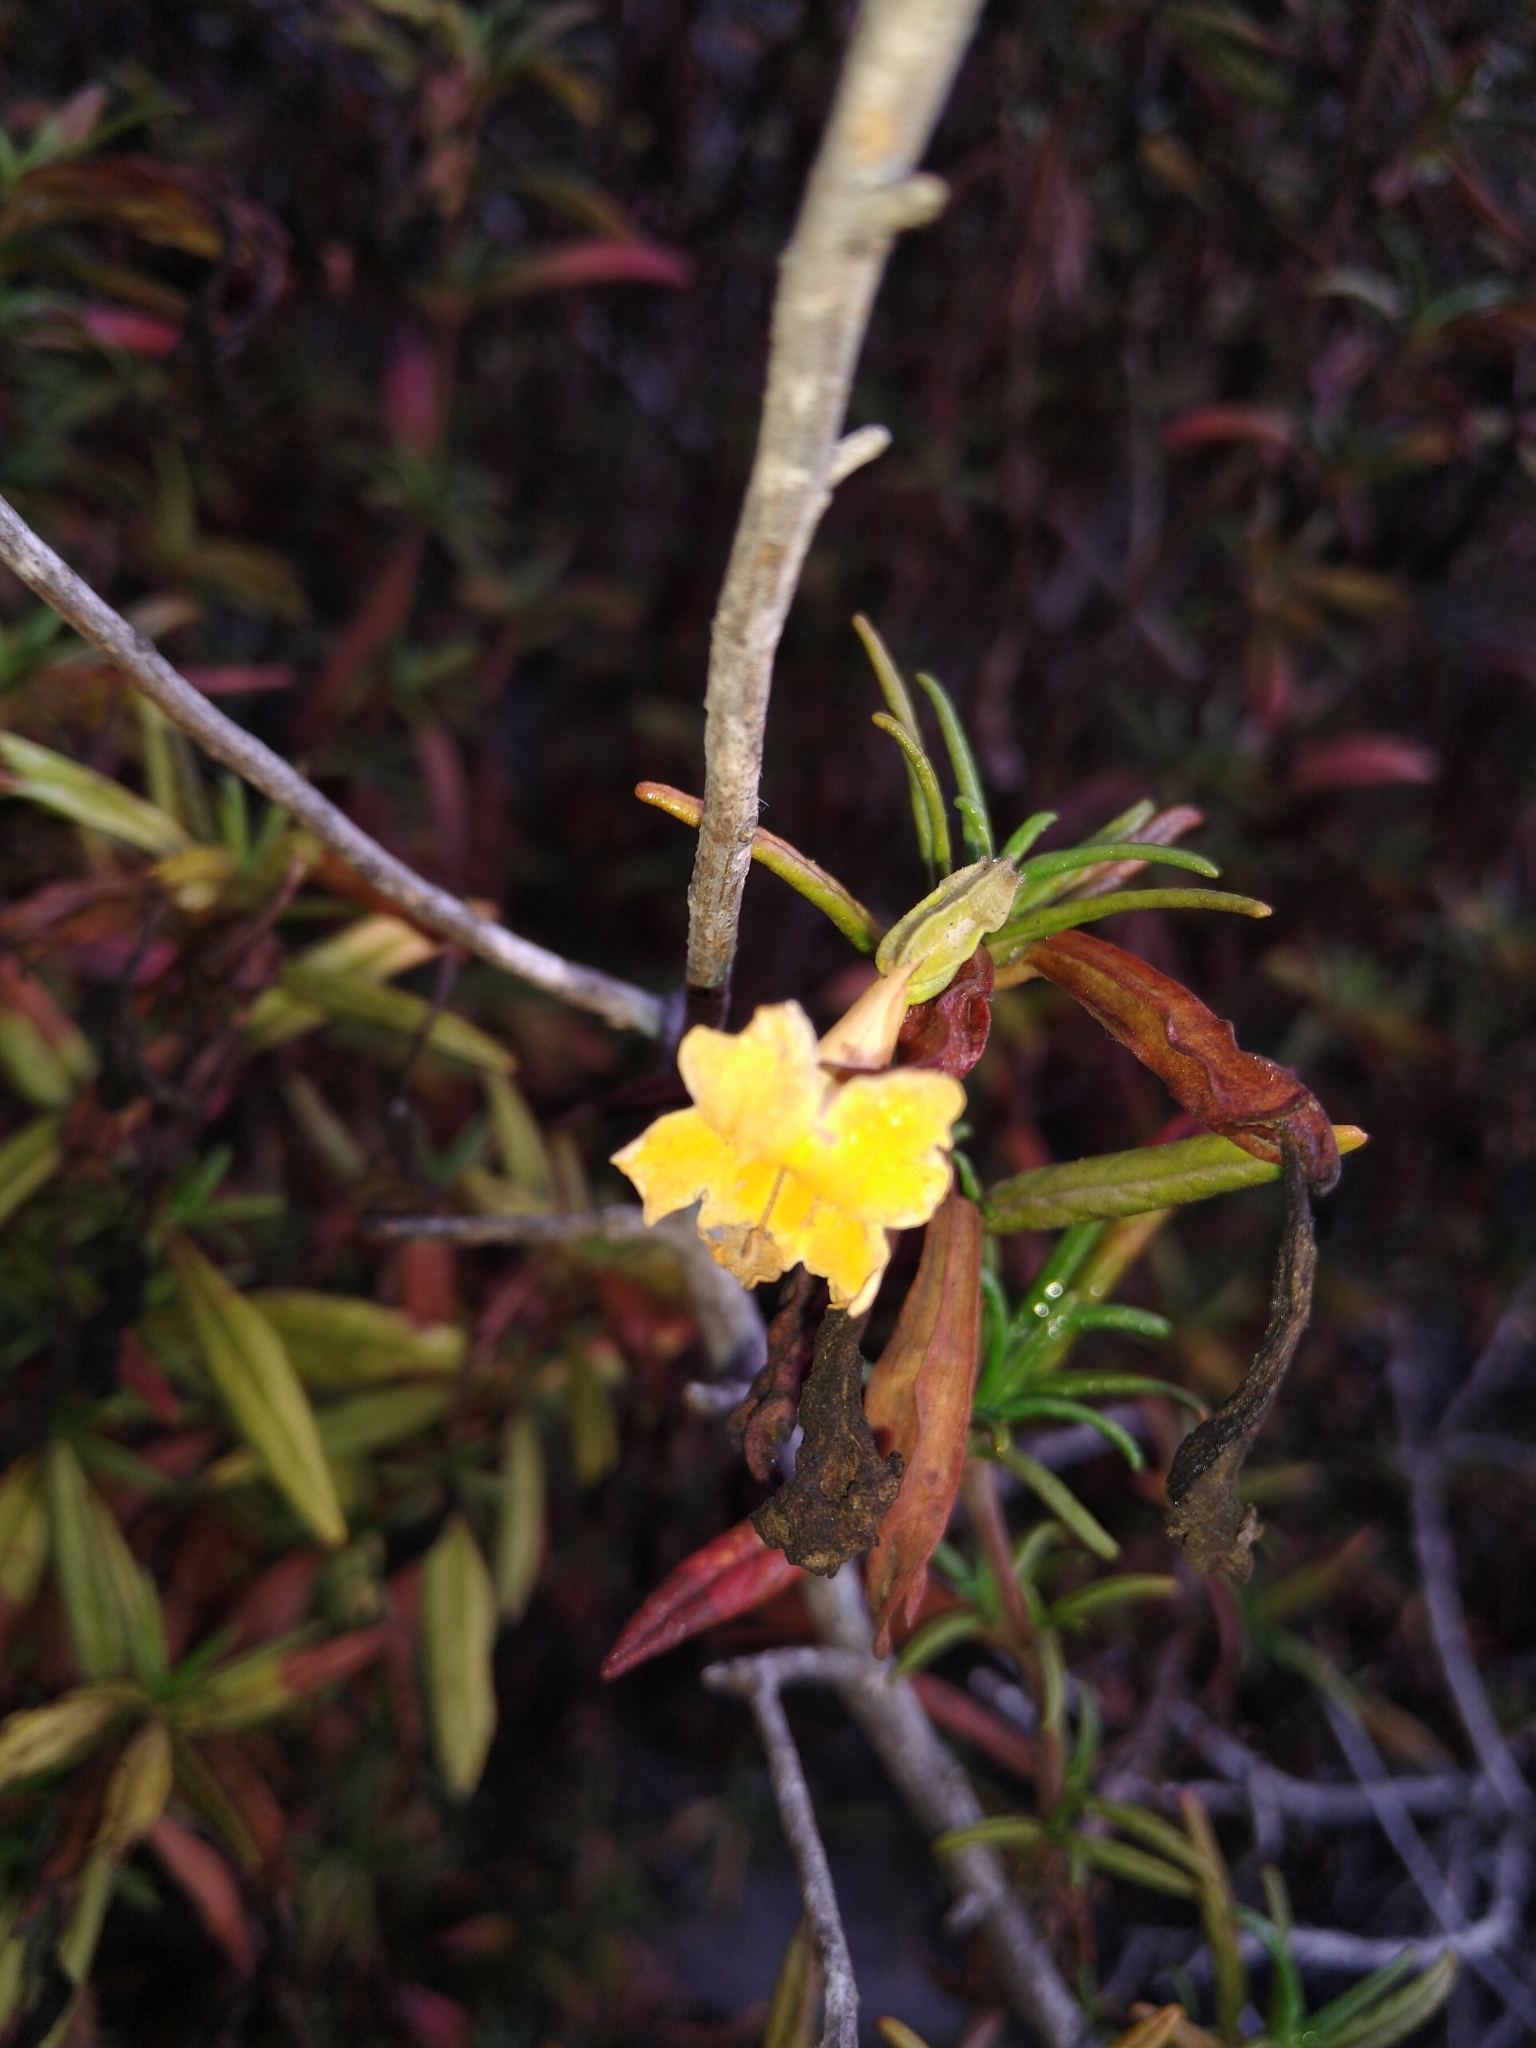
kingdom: Plantae
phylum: Tracheophyta
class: Magnoliopsida
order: Lamiales
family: Phrymaceae
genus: Diplacus
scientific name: Diplacus aurantiacus
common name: Bush monkey-flower
